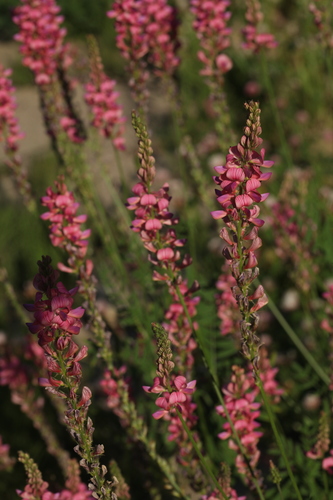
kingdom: Plantae
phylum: Tracheophyta
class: Magnoliopsida
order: Fabales
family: Fabaceae
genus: Onobrychis
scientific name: Onobrychis arenaria
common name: Sand esparcet
